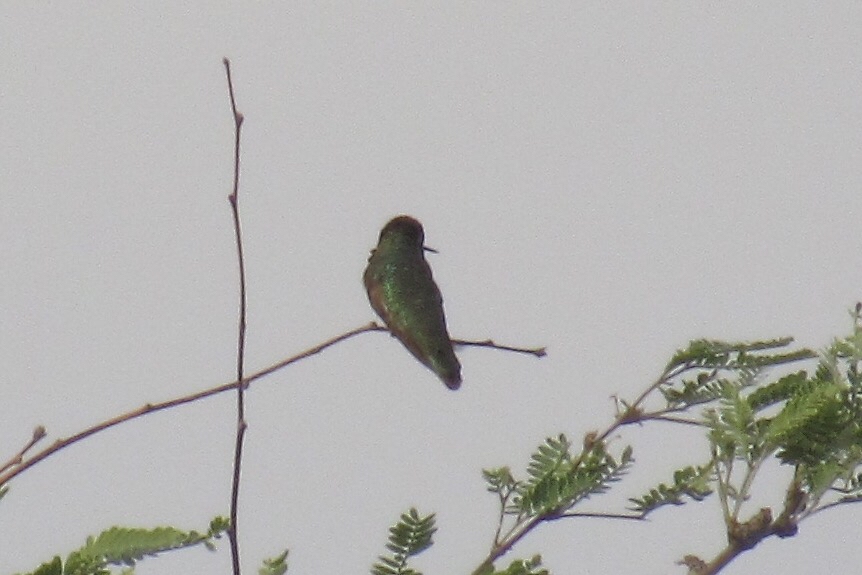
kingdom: Animalia
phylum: Chordata
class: Aves
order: Apodiformes
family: Trochilidae
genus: Calypte
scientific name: Calypte anna
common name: Anna's hummingbird
